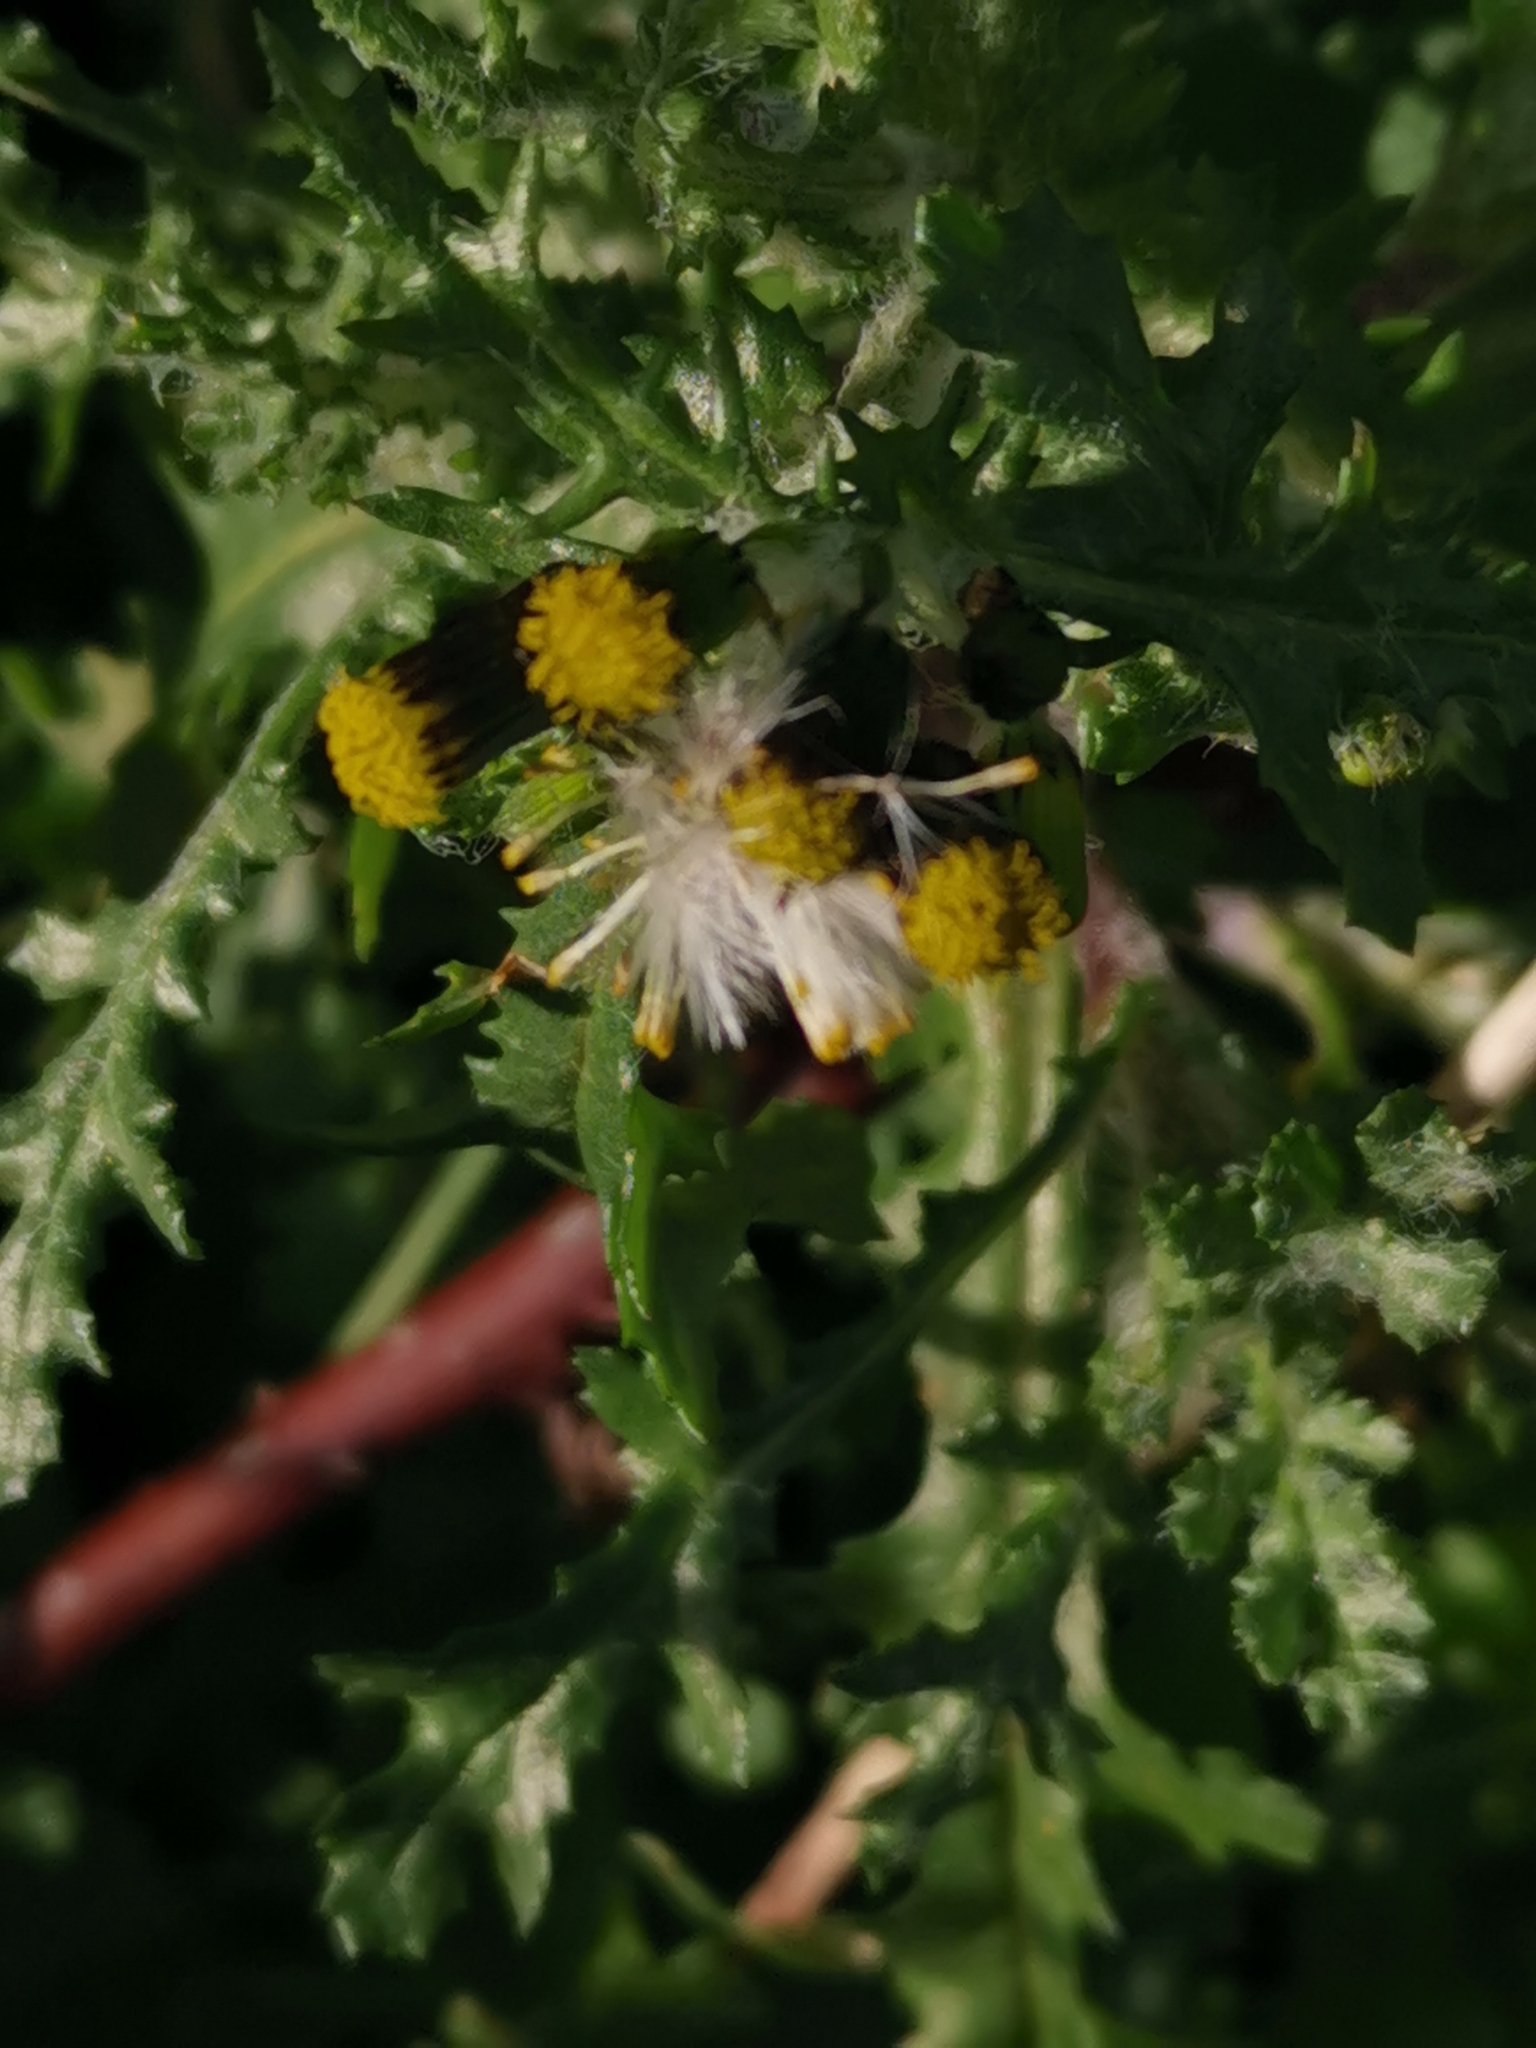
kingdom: Plantae
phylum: Tracheophyta
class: Magnoliopsida
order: Asterales
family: Asteraceae
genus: Senecio
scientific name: Senecio vulgaris
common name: Old-man-in-the-spring
